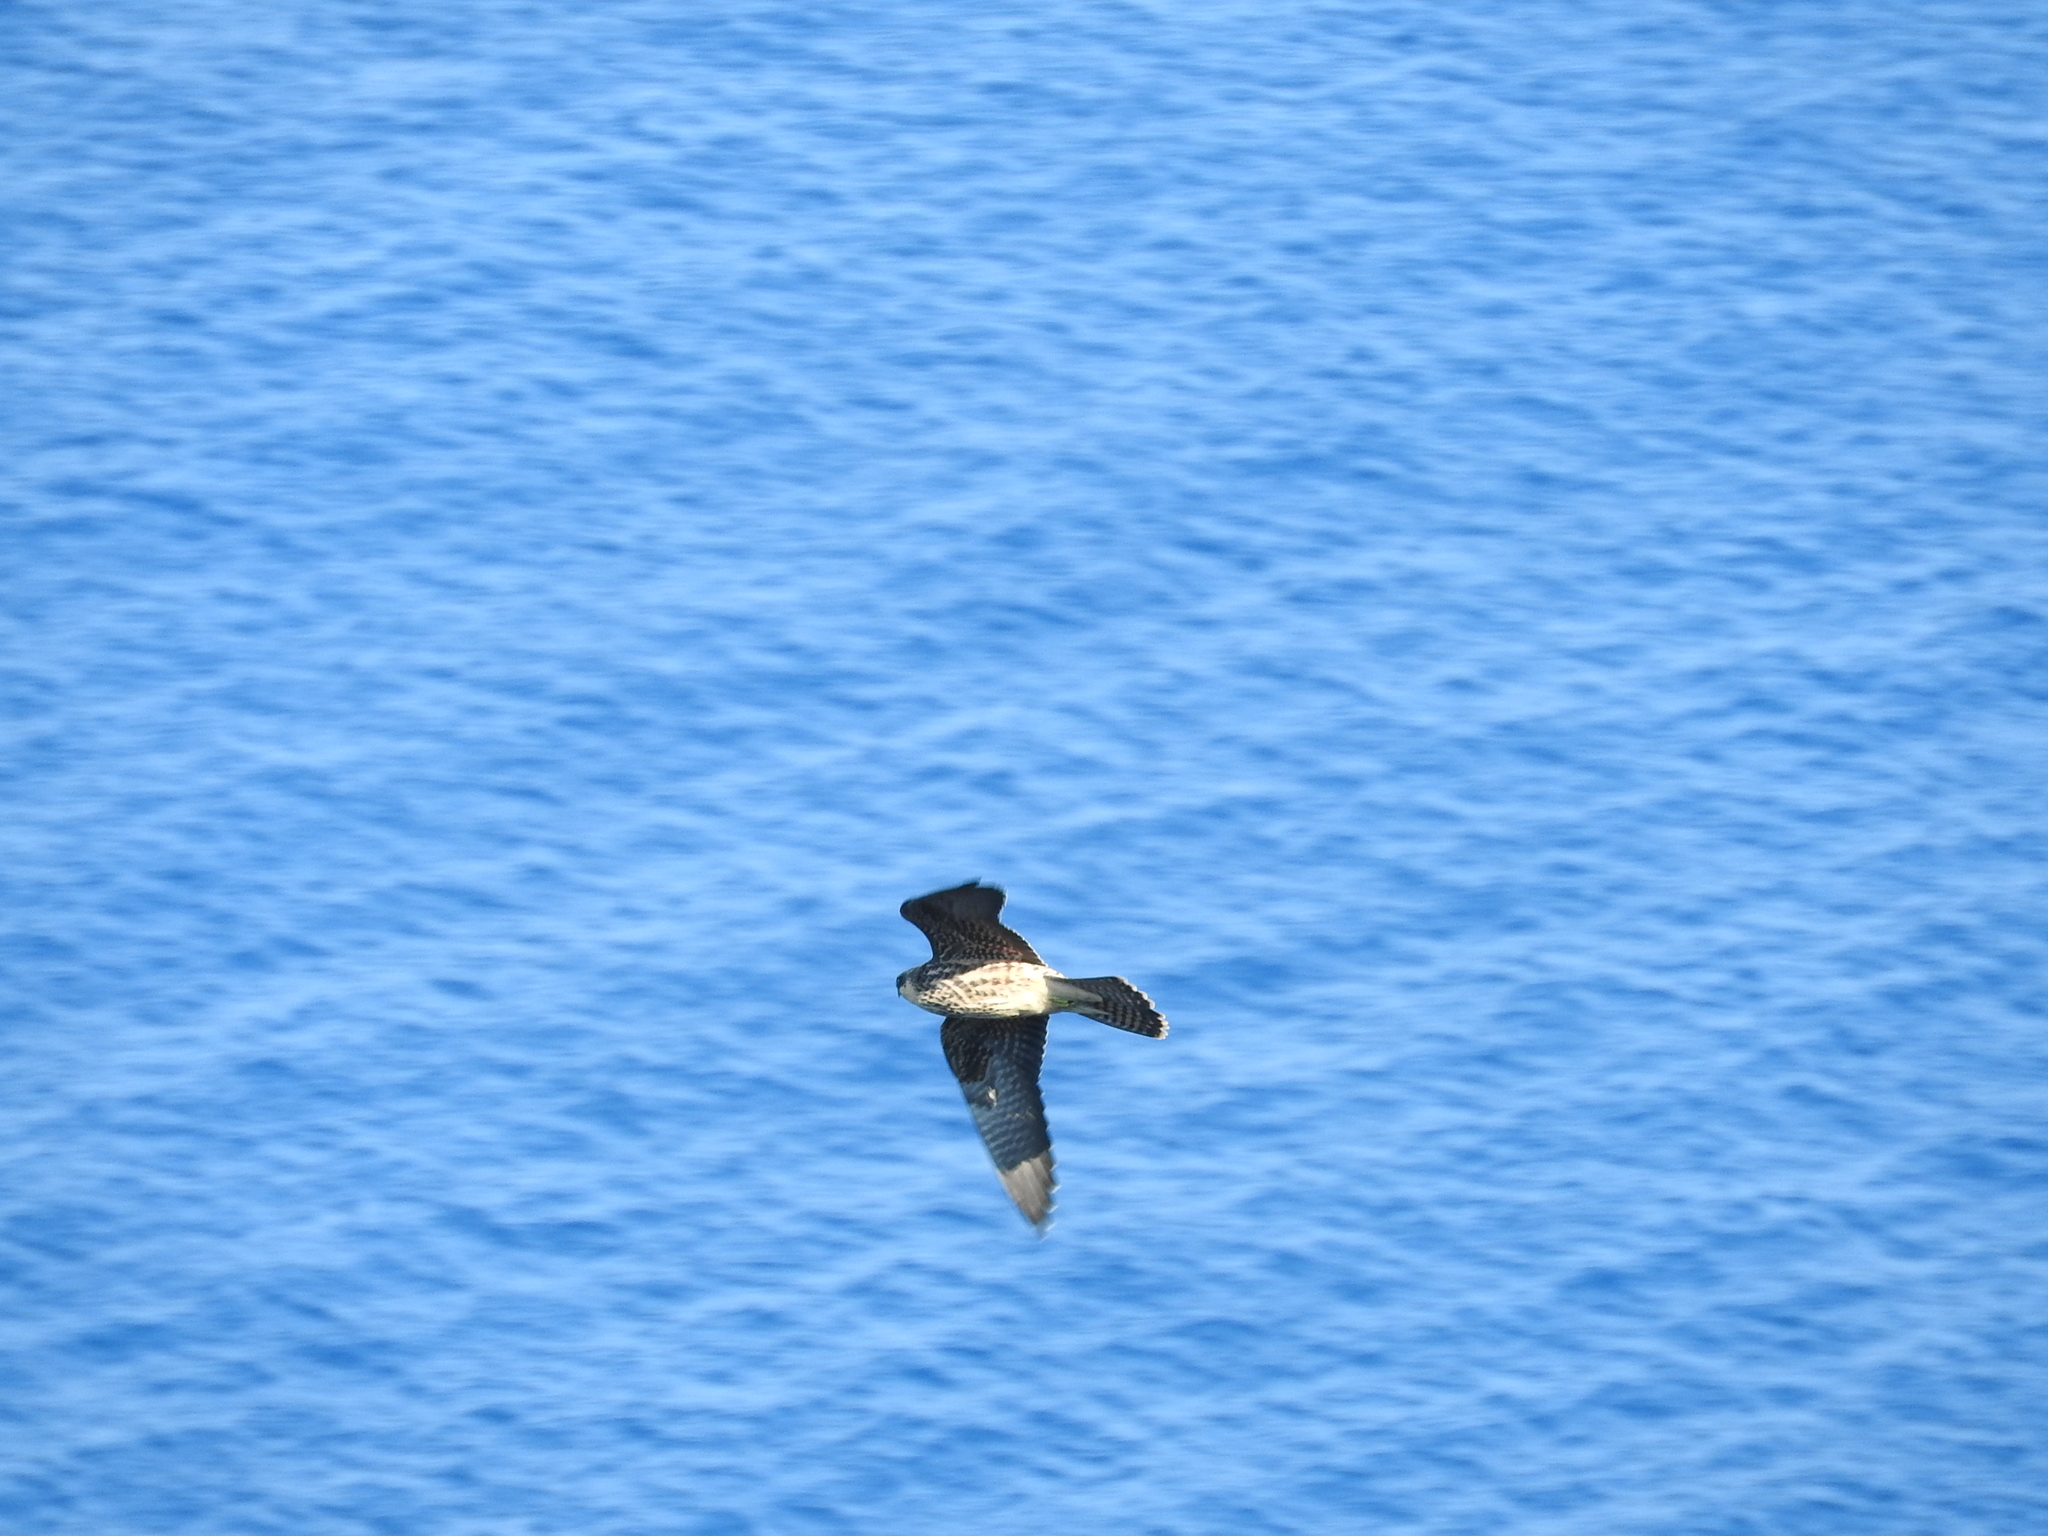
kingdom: Animalia
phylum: Chordata
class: Aves
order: Falconiformes
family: Falconidae
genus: Falco
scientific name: Falco eleonorae
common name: Eleonora's falcon
